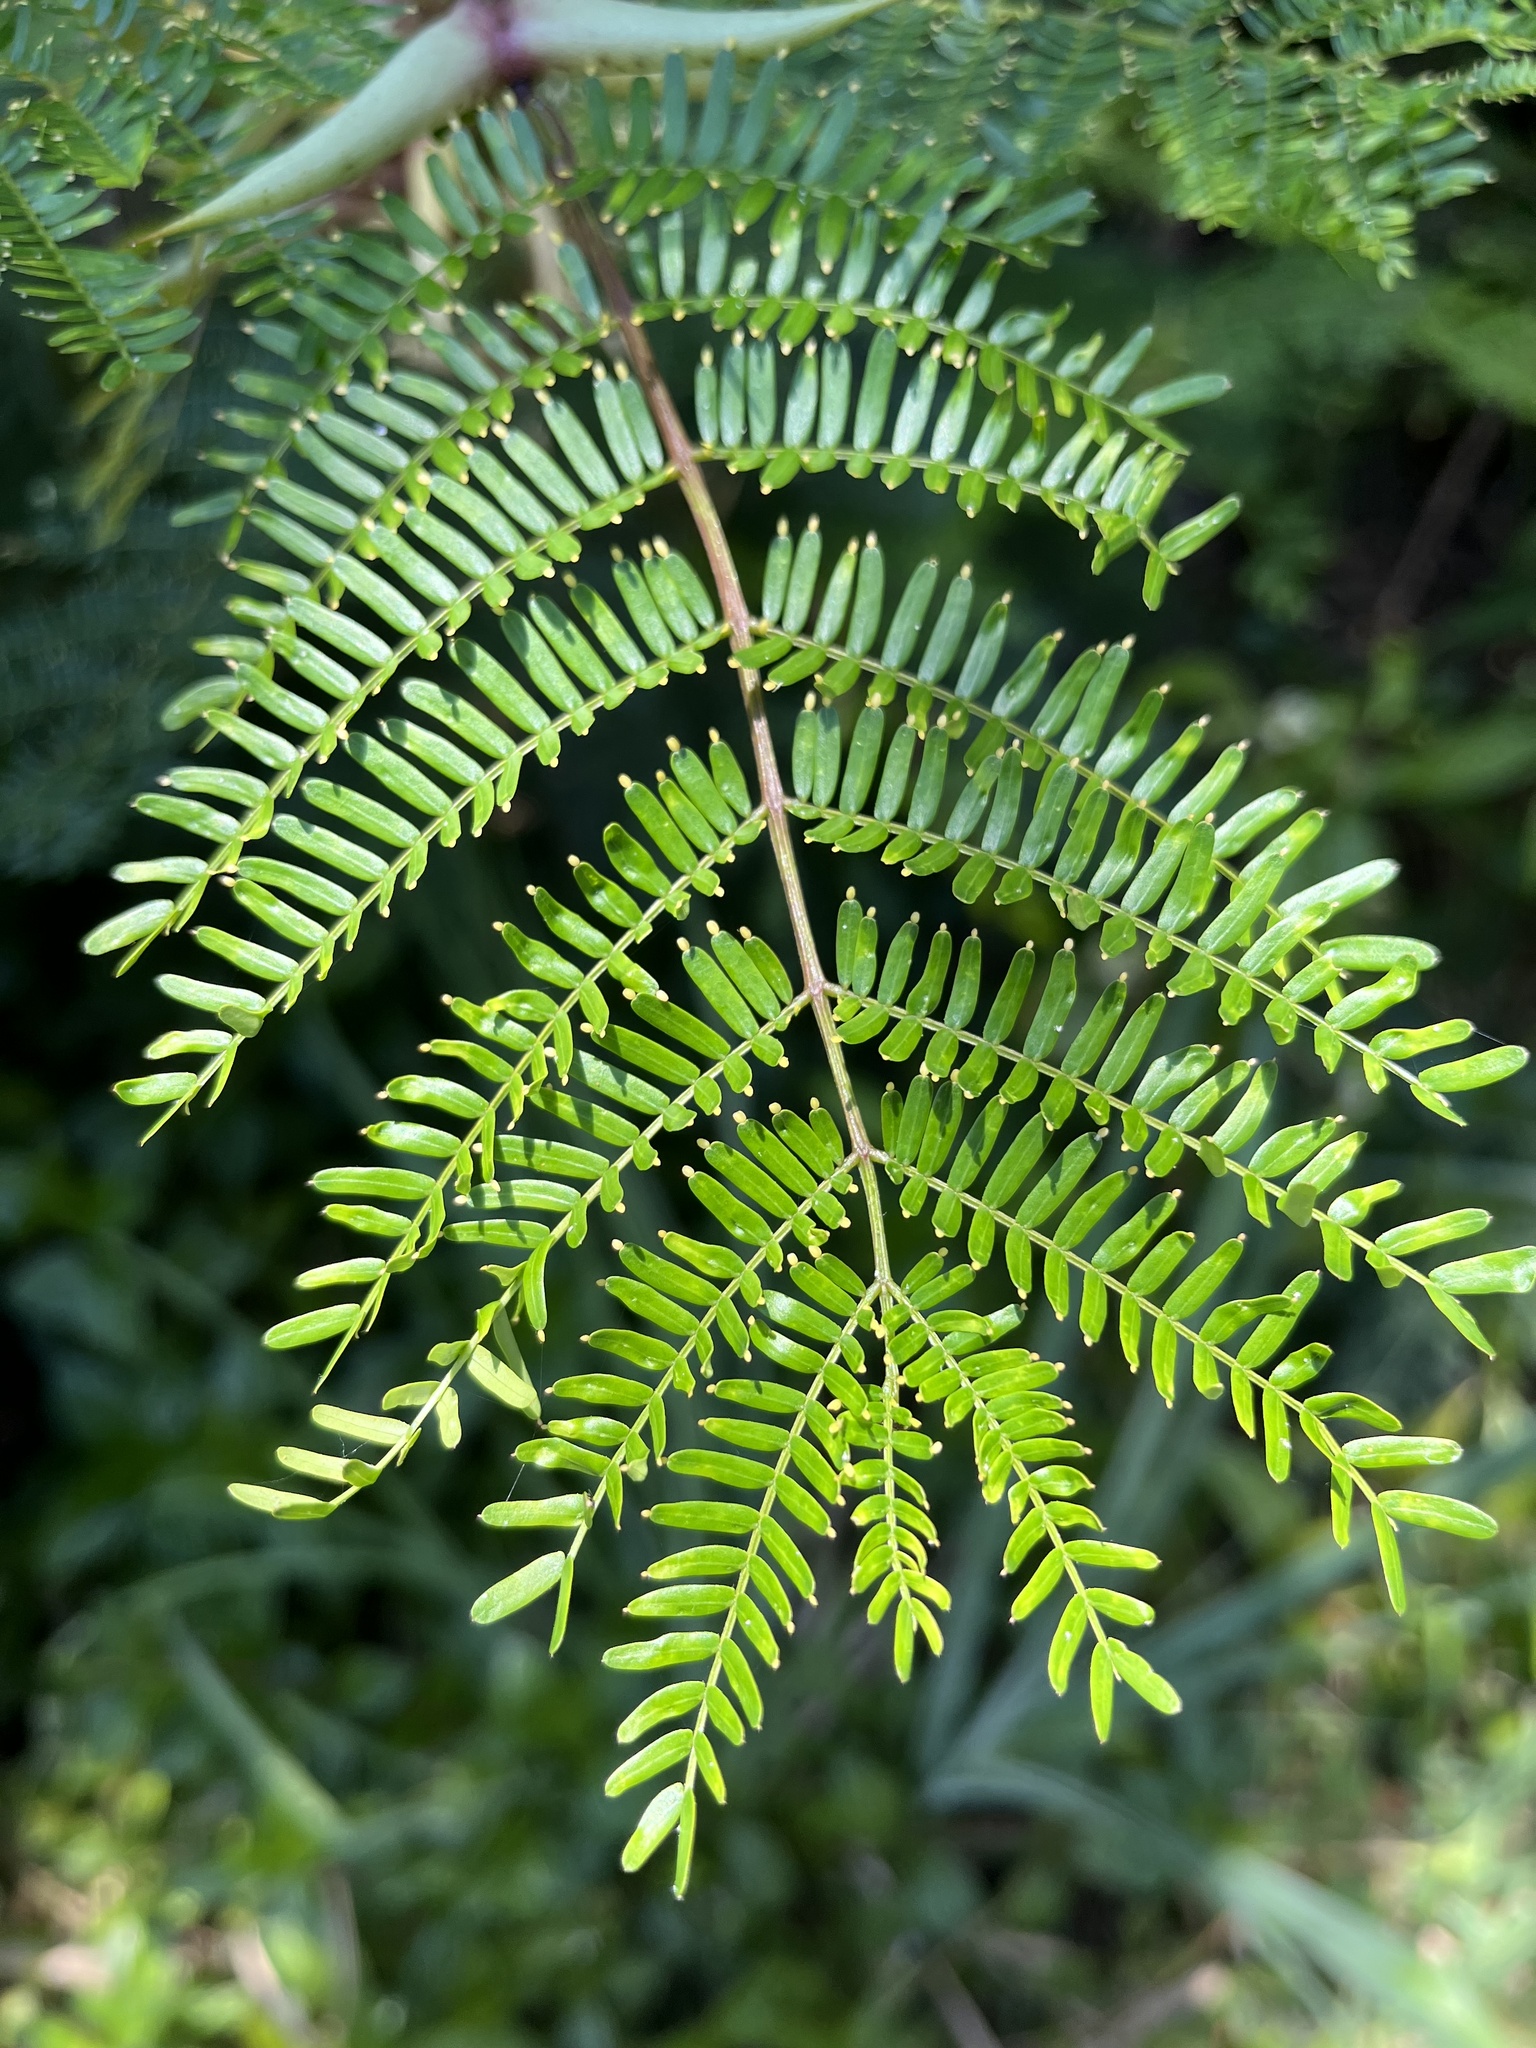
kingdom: Plantae
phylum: Tracheophyta
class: Magnoliopsida
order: Fabales
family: Fabaceae
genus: Vachellia
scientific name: Vachellia cornigera
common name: Bullhorn wattle
